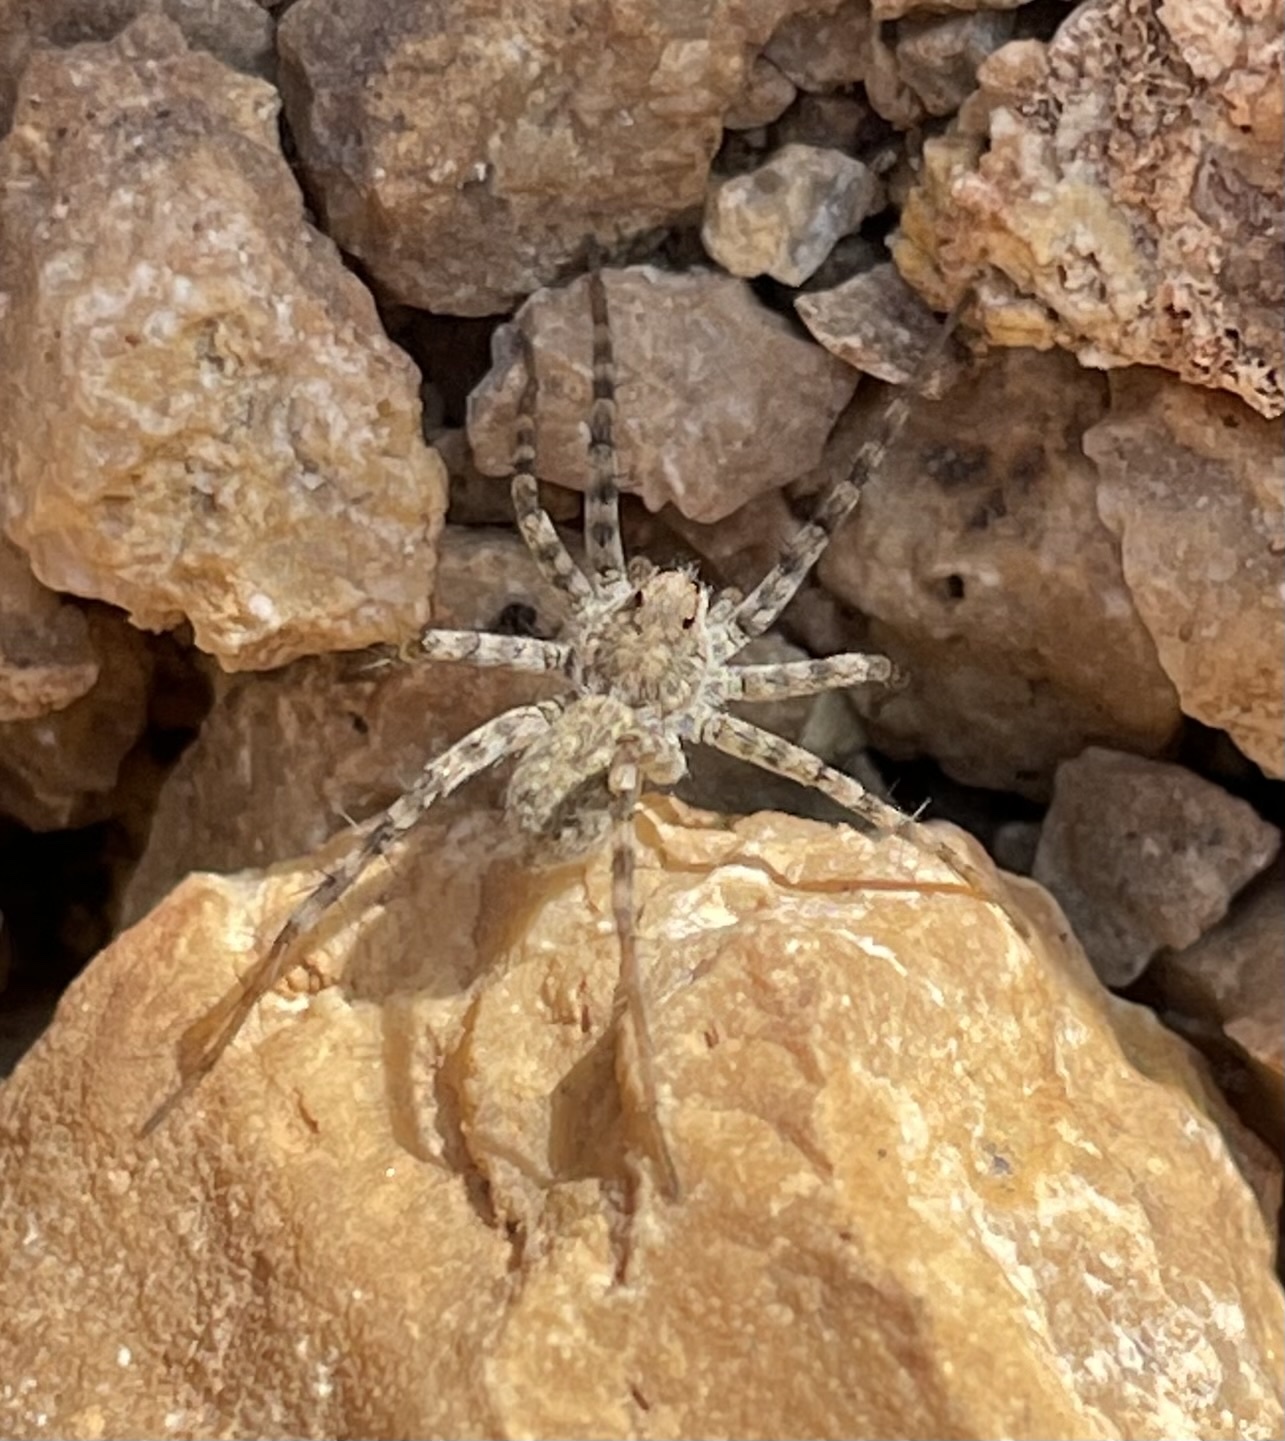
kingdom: Animalia
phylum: Arthropoda
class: Arachnida
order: Araneae
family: Lycosidae
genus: Pardosa
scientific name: Pardosa mercurialis
